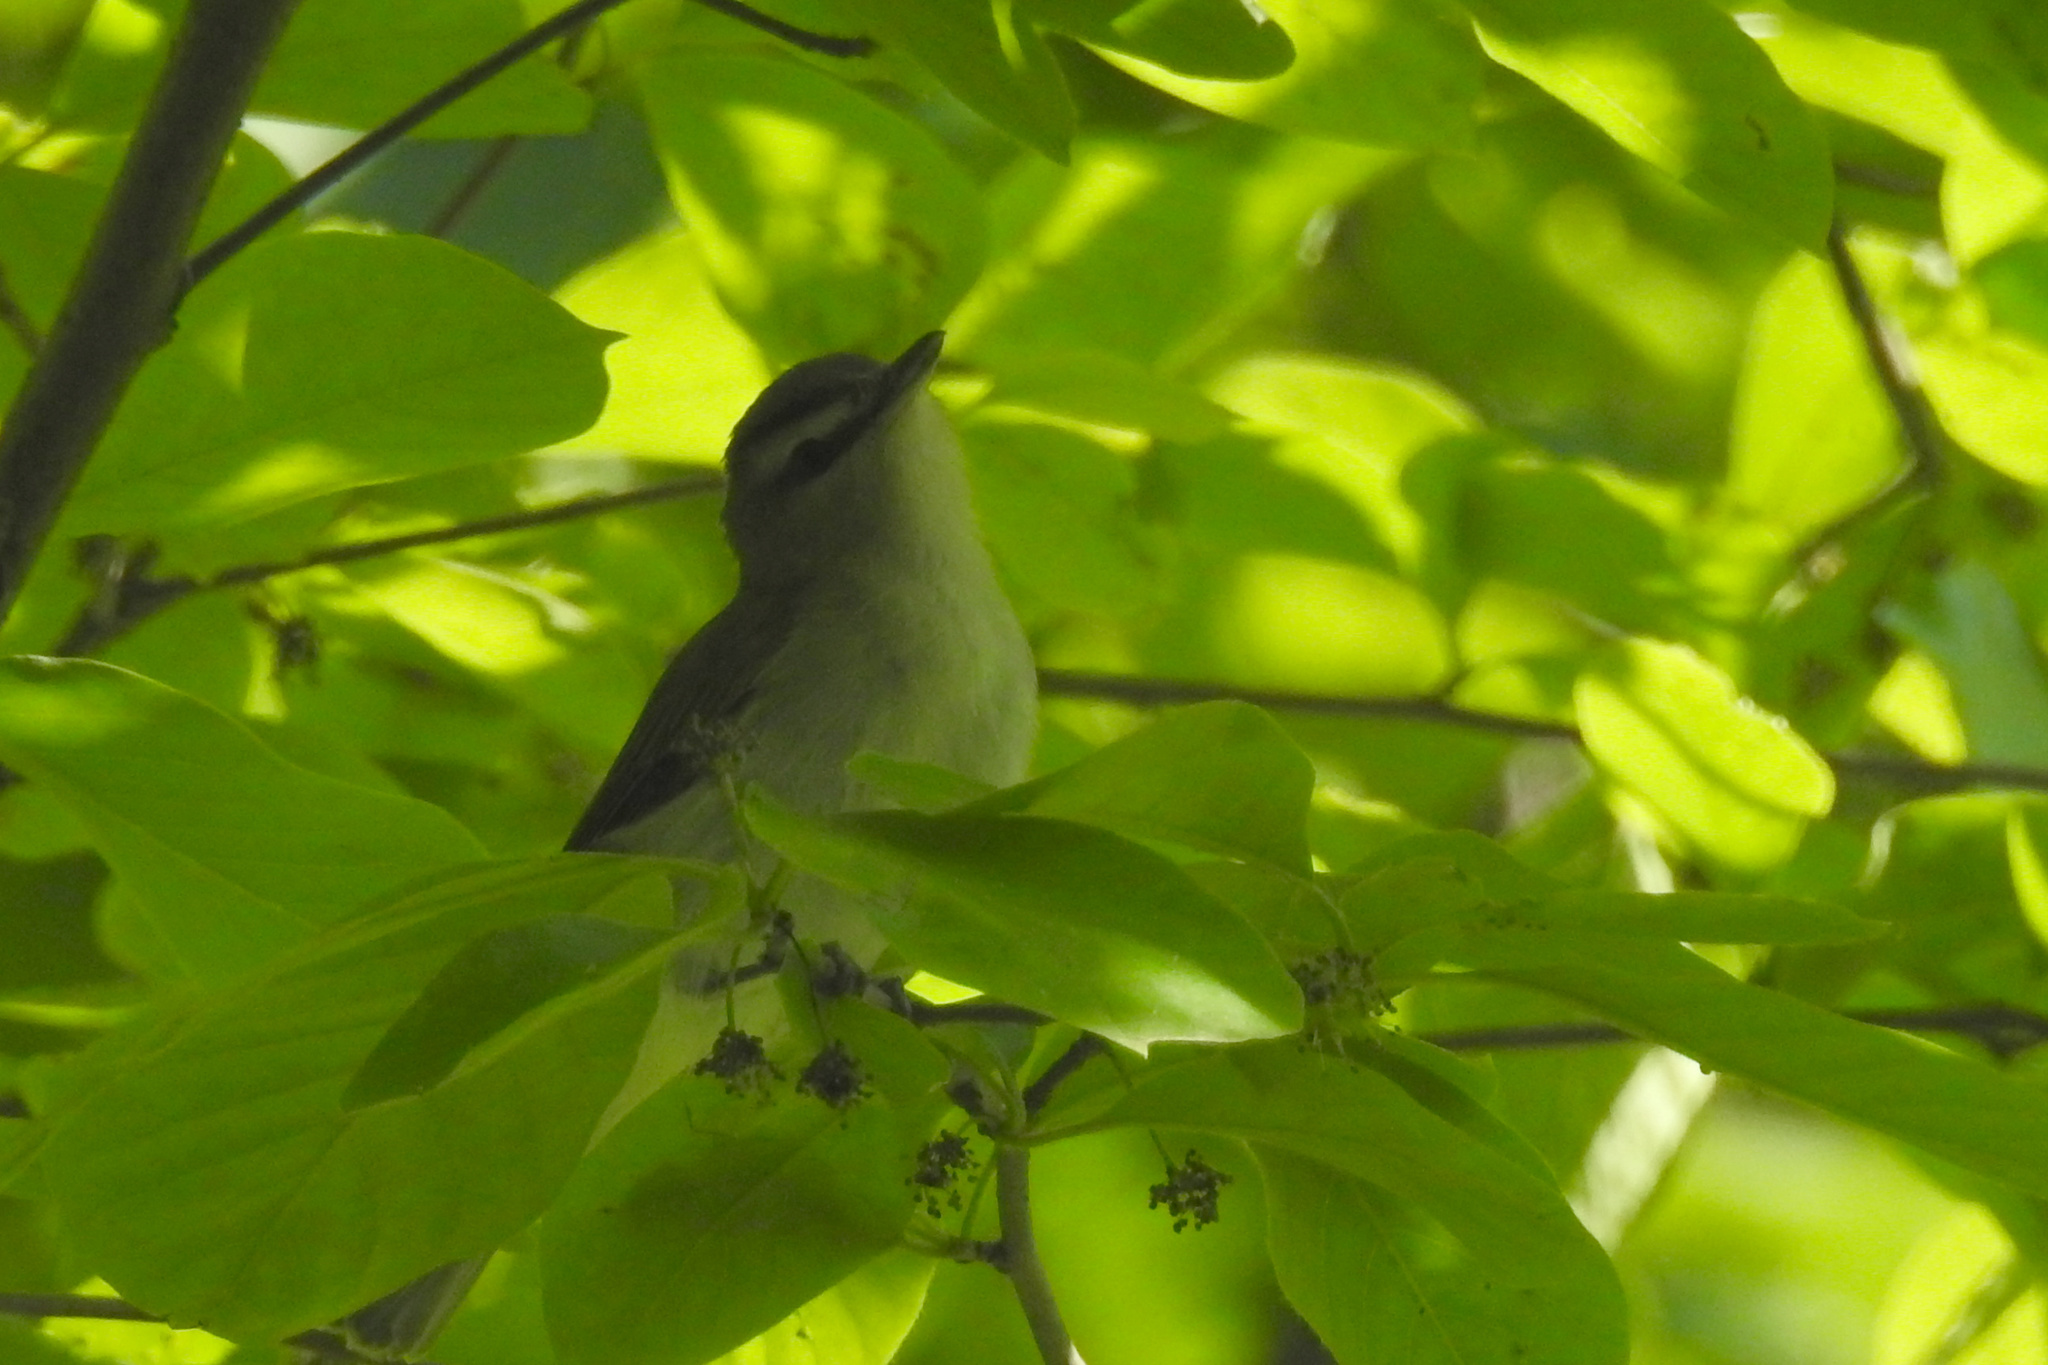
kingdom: Animalia
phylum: Chordata
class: Aves
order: Passeriformes
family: Vireonidae
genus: Vireo
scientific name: Vireo olivaceus
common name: Red-eyed vireo
